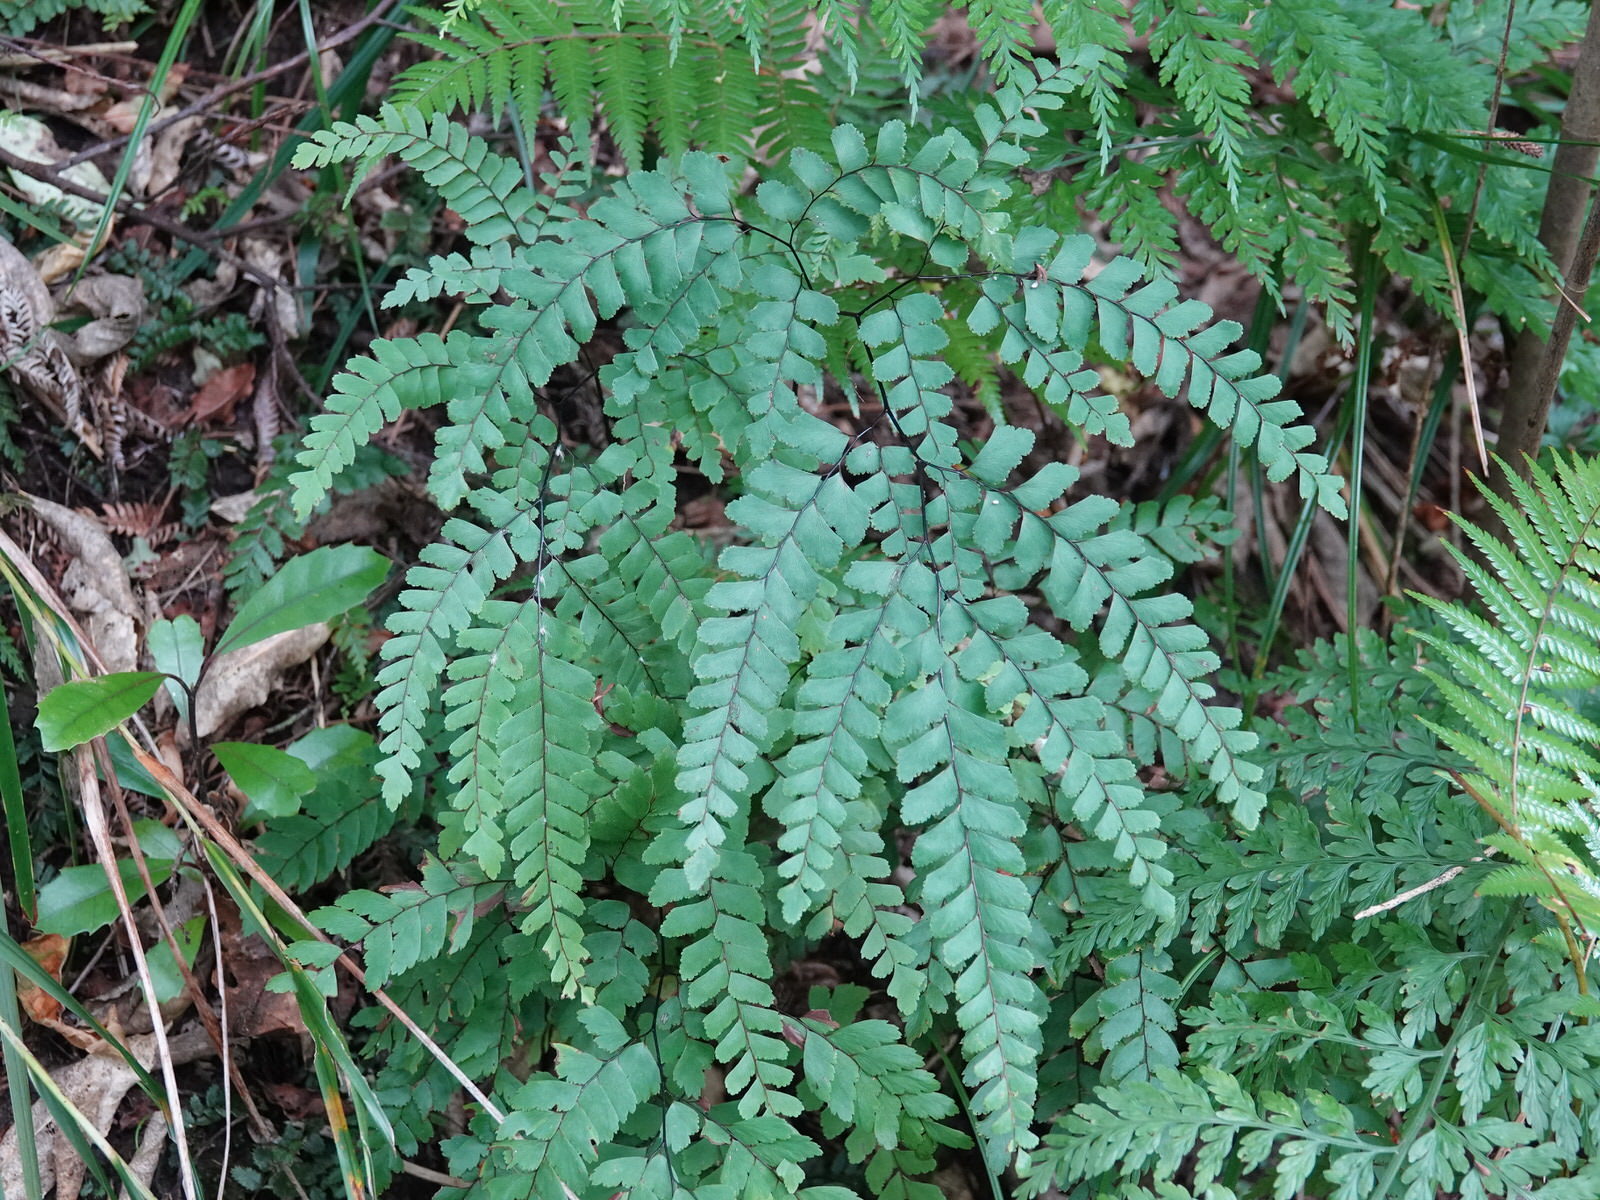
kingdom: Plantae
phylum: Tracheophyta
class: Polypodiopsida
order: Polypodiales
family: Pteridaceae
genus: Adiantum
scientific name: Adiantum cunninghamii
